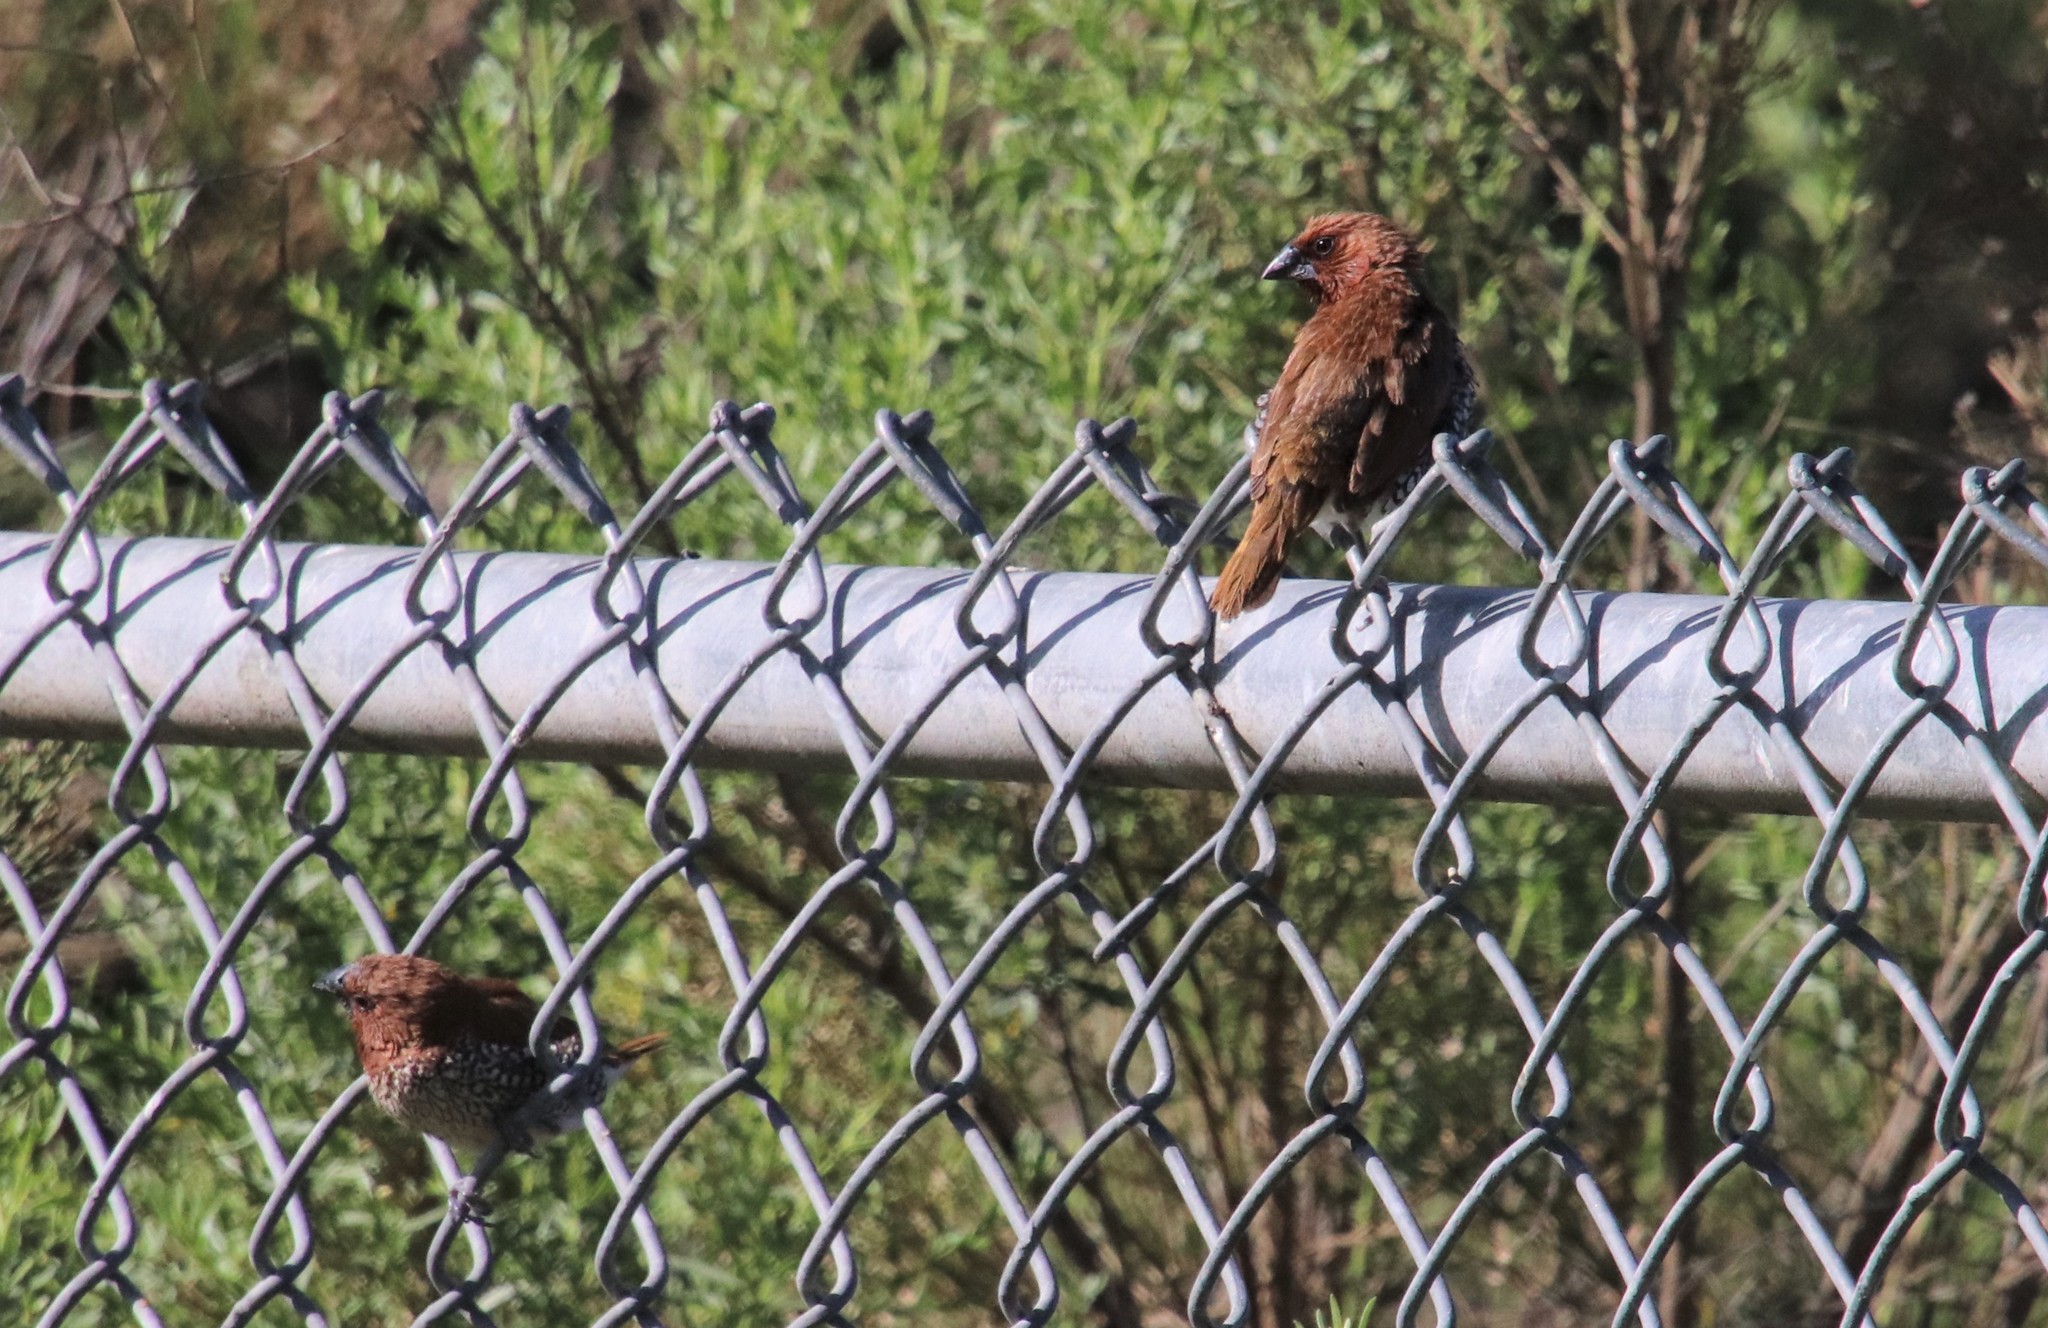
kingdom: Animalia
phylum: Chordata
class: Aves
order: Passeriformes
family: Estrildidae
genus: Lonchura
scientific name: Lonchura punctulata
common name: Scaly-breasted munia
